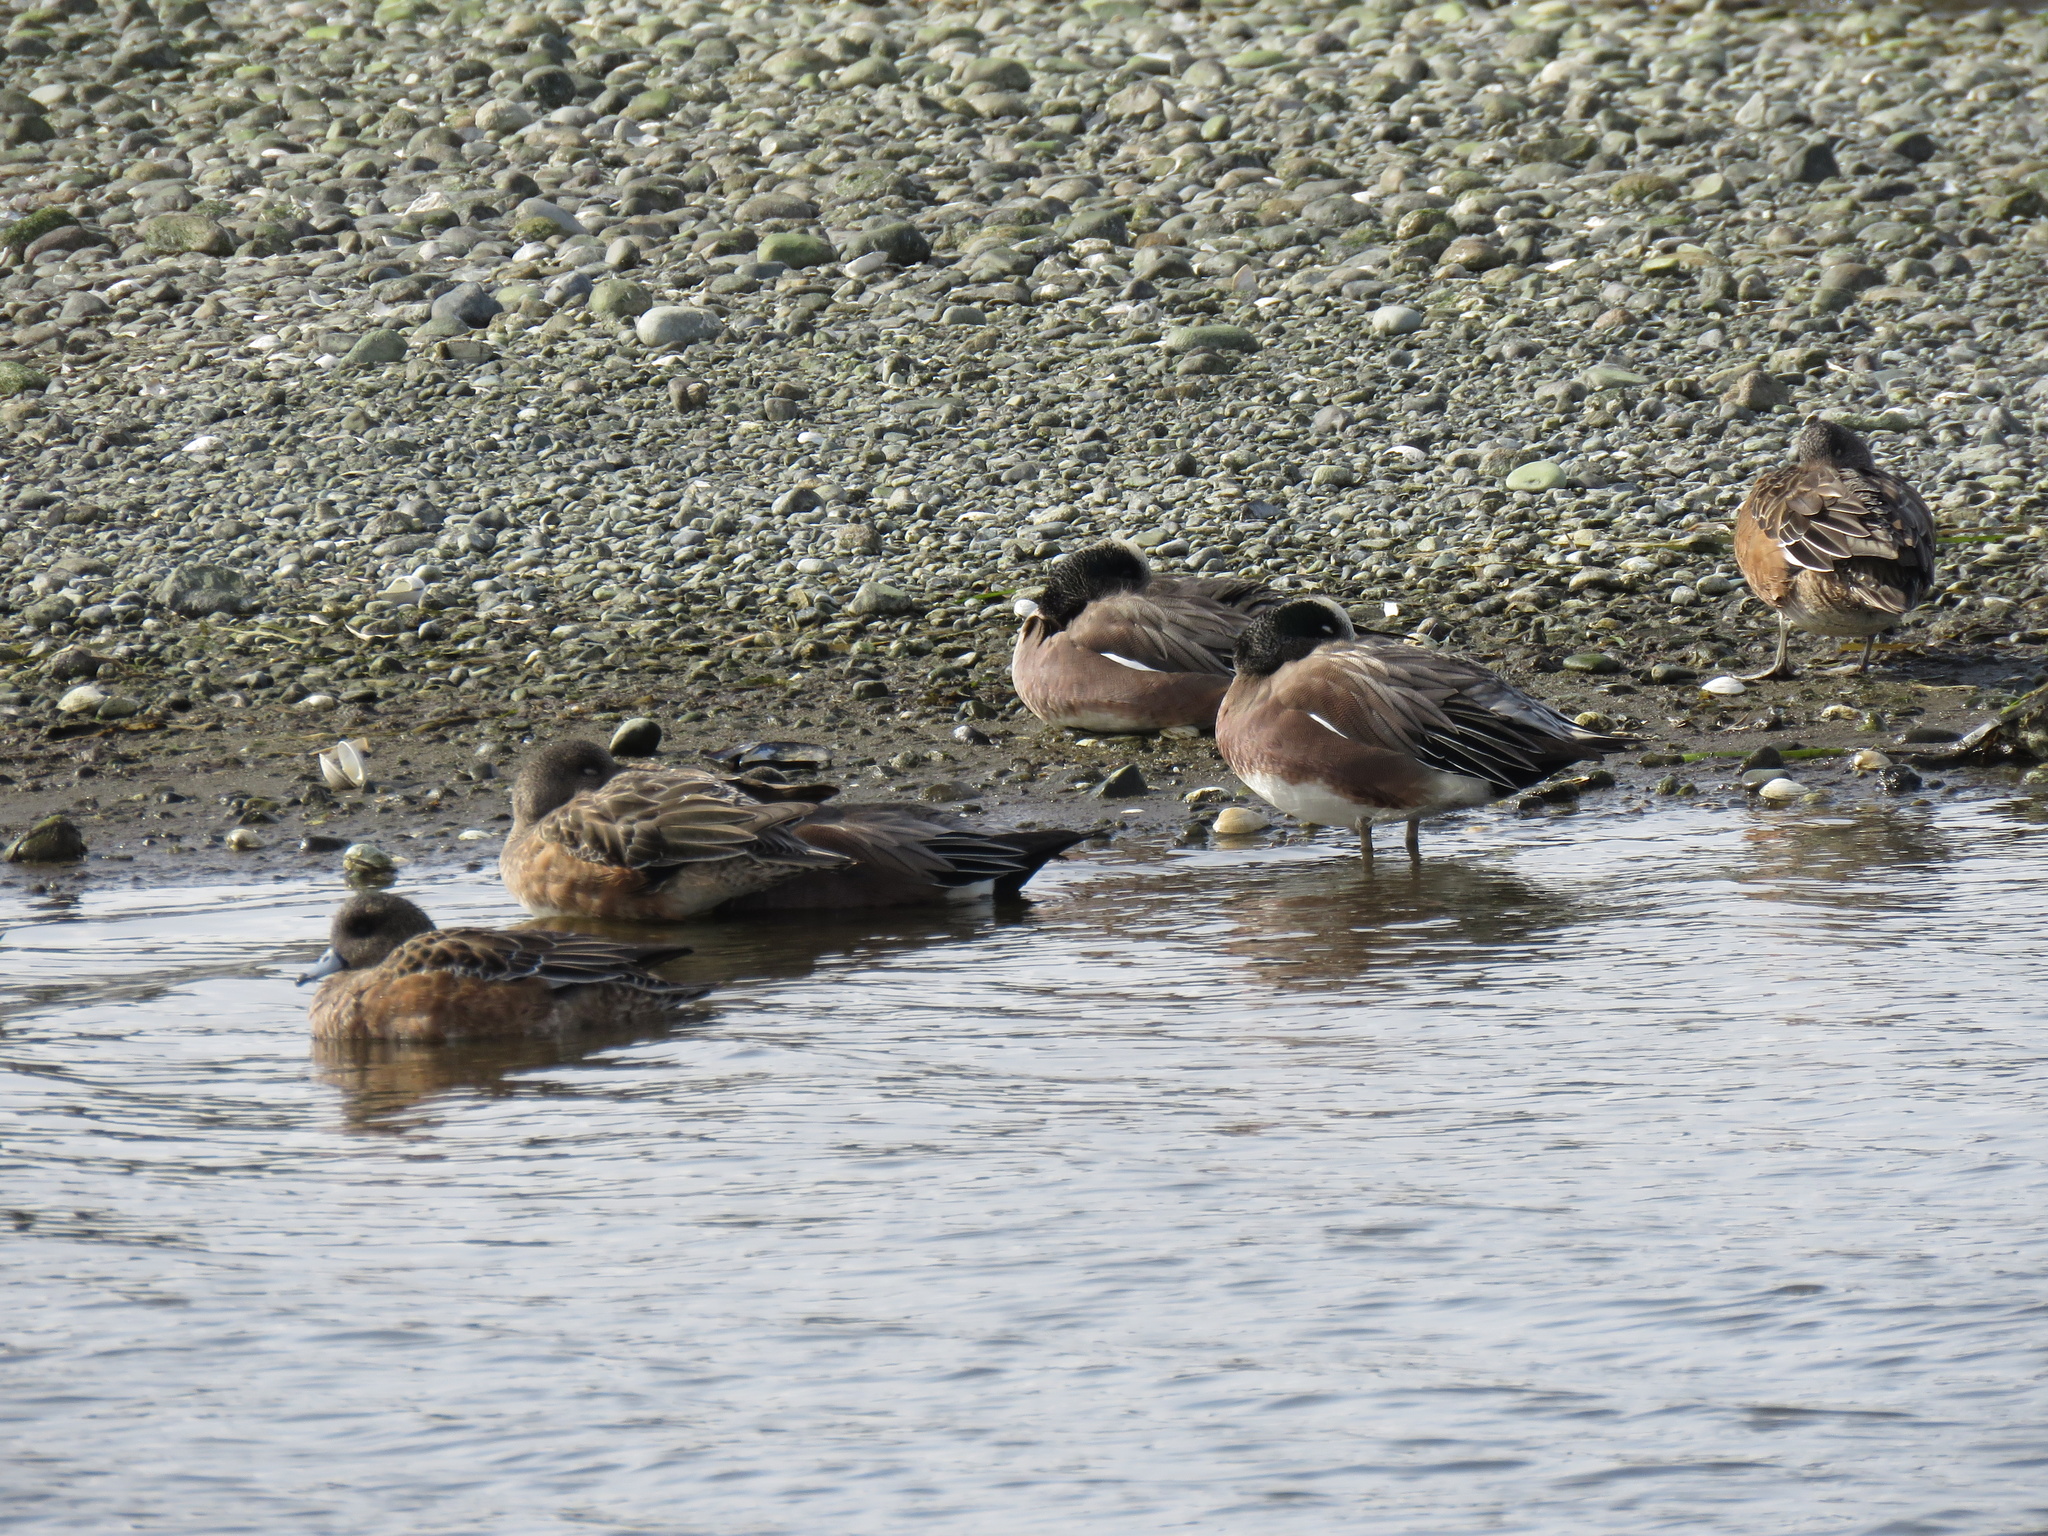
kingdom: Animalia
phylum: Chordata
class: Aves
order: Anseriformes
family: Anatidae
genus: Mareca
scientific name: Mareca americana
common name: American wigeon
